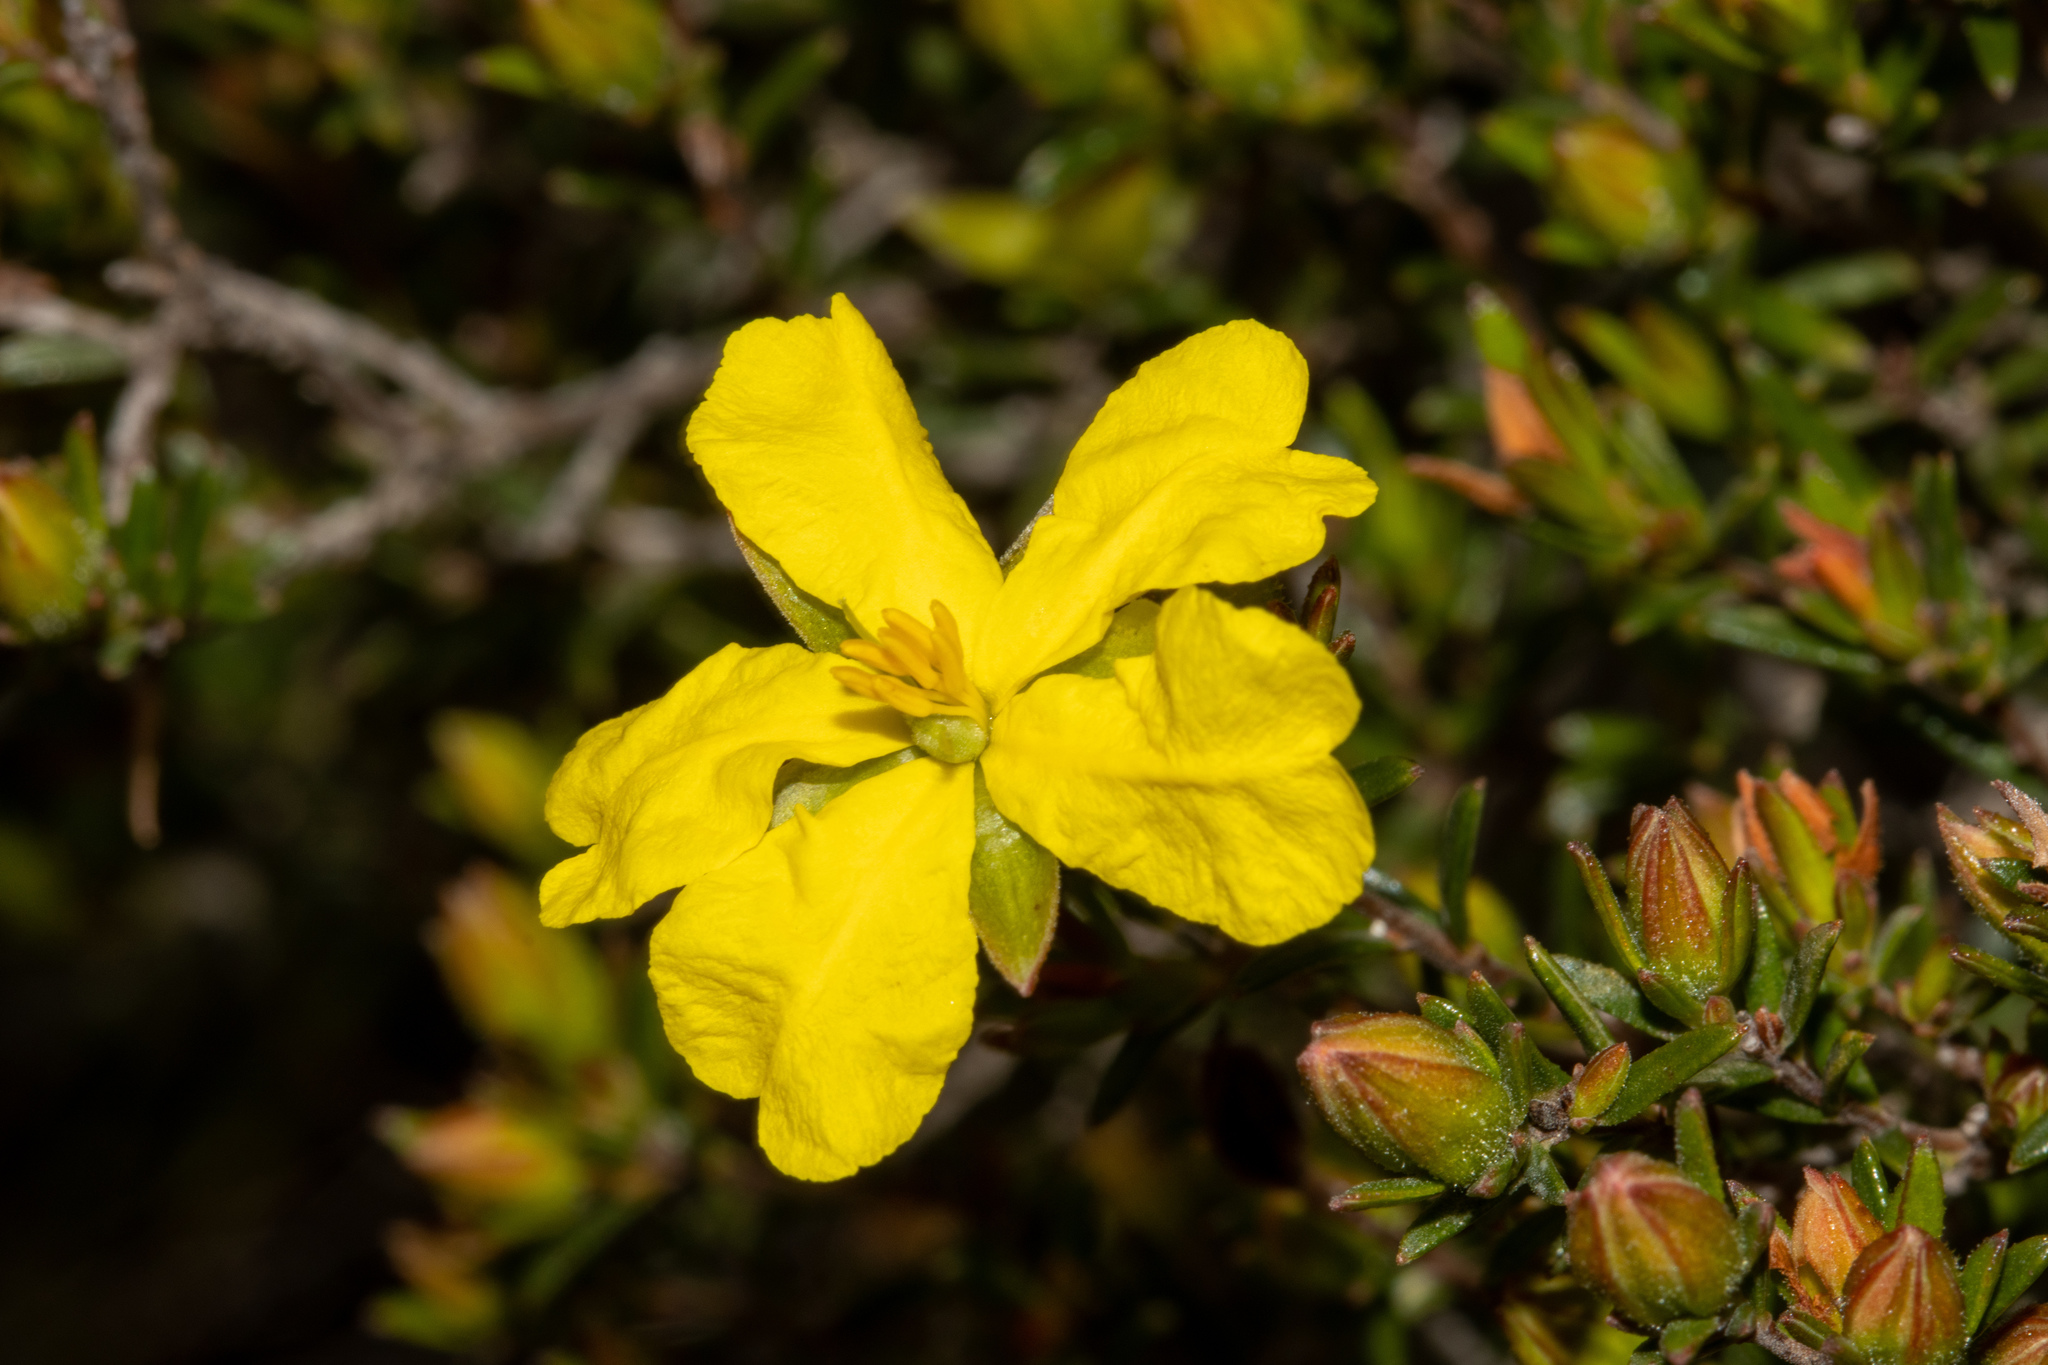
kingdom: Plantae
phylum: Tracheophyta
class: Magnoliopsida
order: Dilleniales
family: Dilleniaceae
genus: Hibbertia
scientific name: Hibbertia devitata
